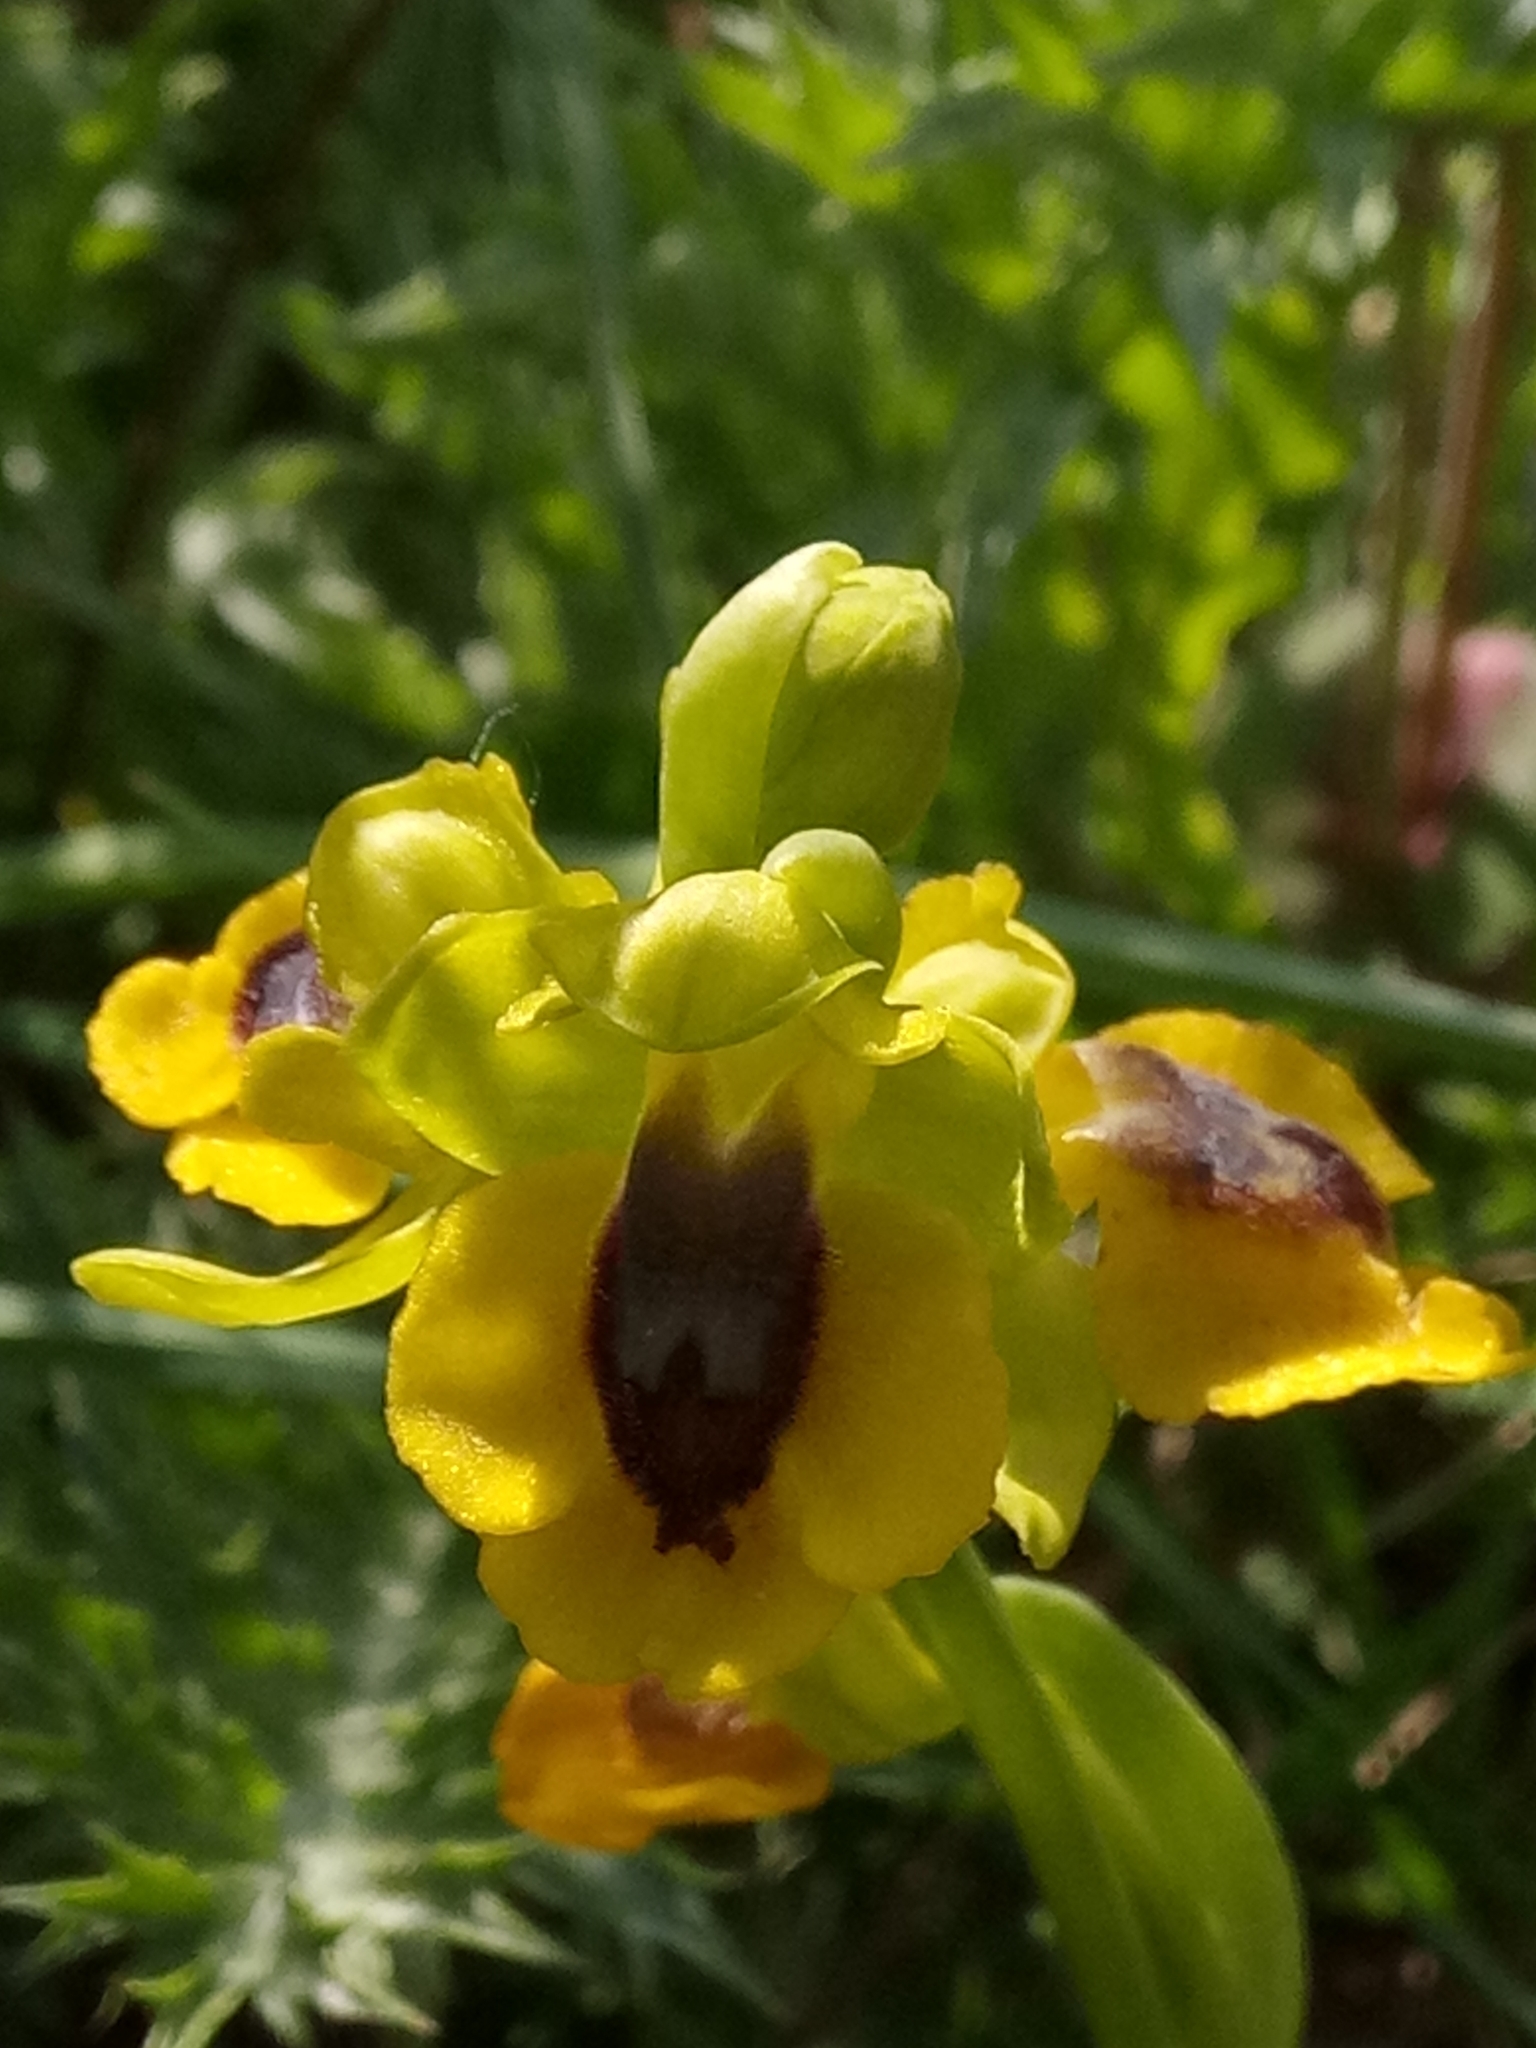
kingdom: Plantae
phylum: Tracheophyta
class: Liliopsida
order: Asparagales
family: Orchidaceae
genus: Ophrys
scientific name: Ophrys lutea
